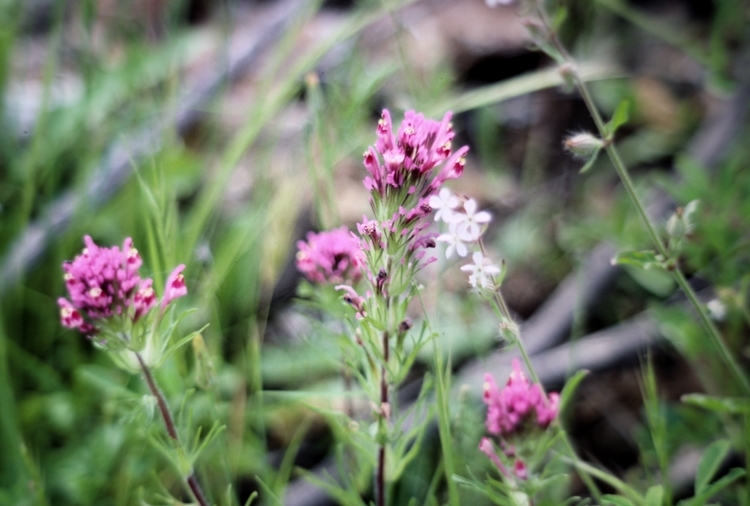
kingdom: Plantae
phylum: Tracheophyta
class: Magnoliopsida
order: Lamiales
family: Orobanchaceae
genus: Castilleja
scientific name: Castilleja exserta
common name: Purple owl-clover
